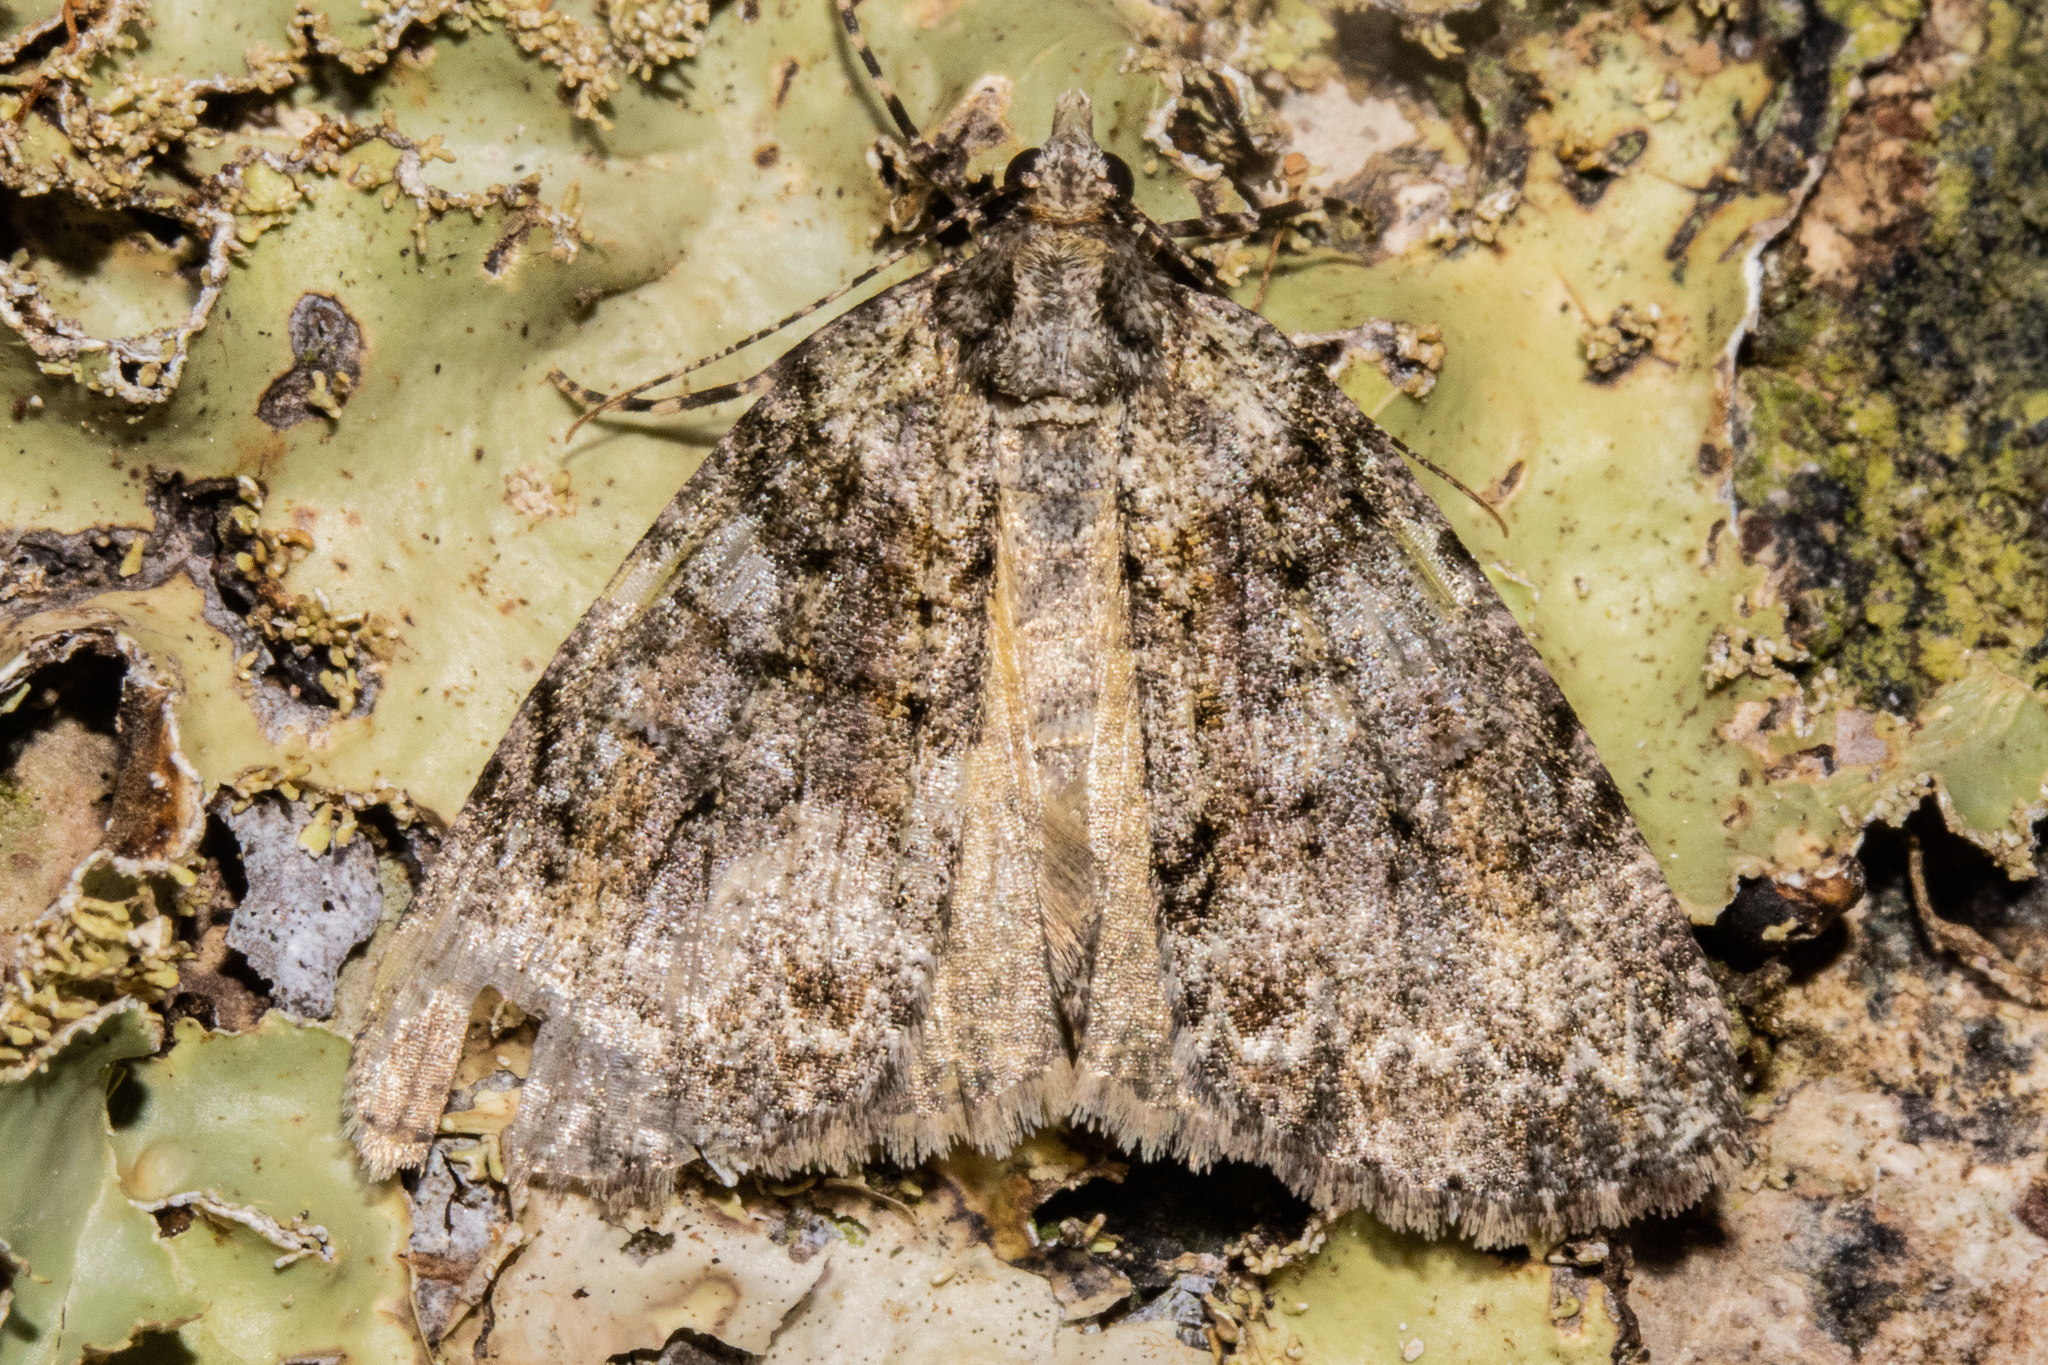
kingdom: Animalia
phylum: Arthropoda
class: Insecta
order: Lepidoptera
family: Geometridae
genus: Pseudocoremia
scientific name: Pseudocoremia suavis
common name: Common forest looper
